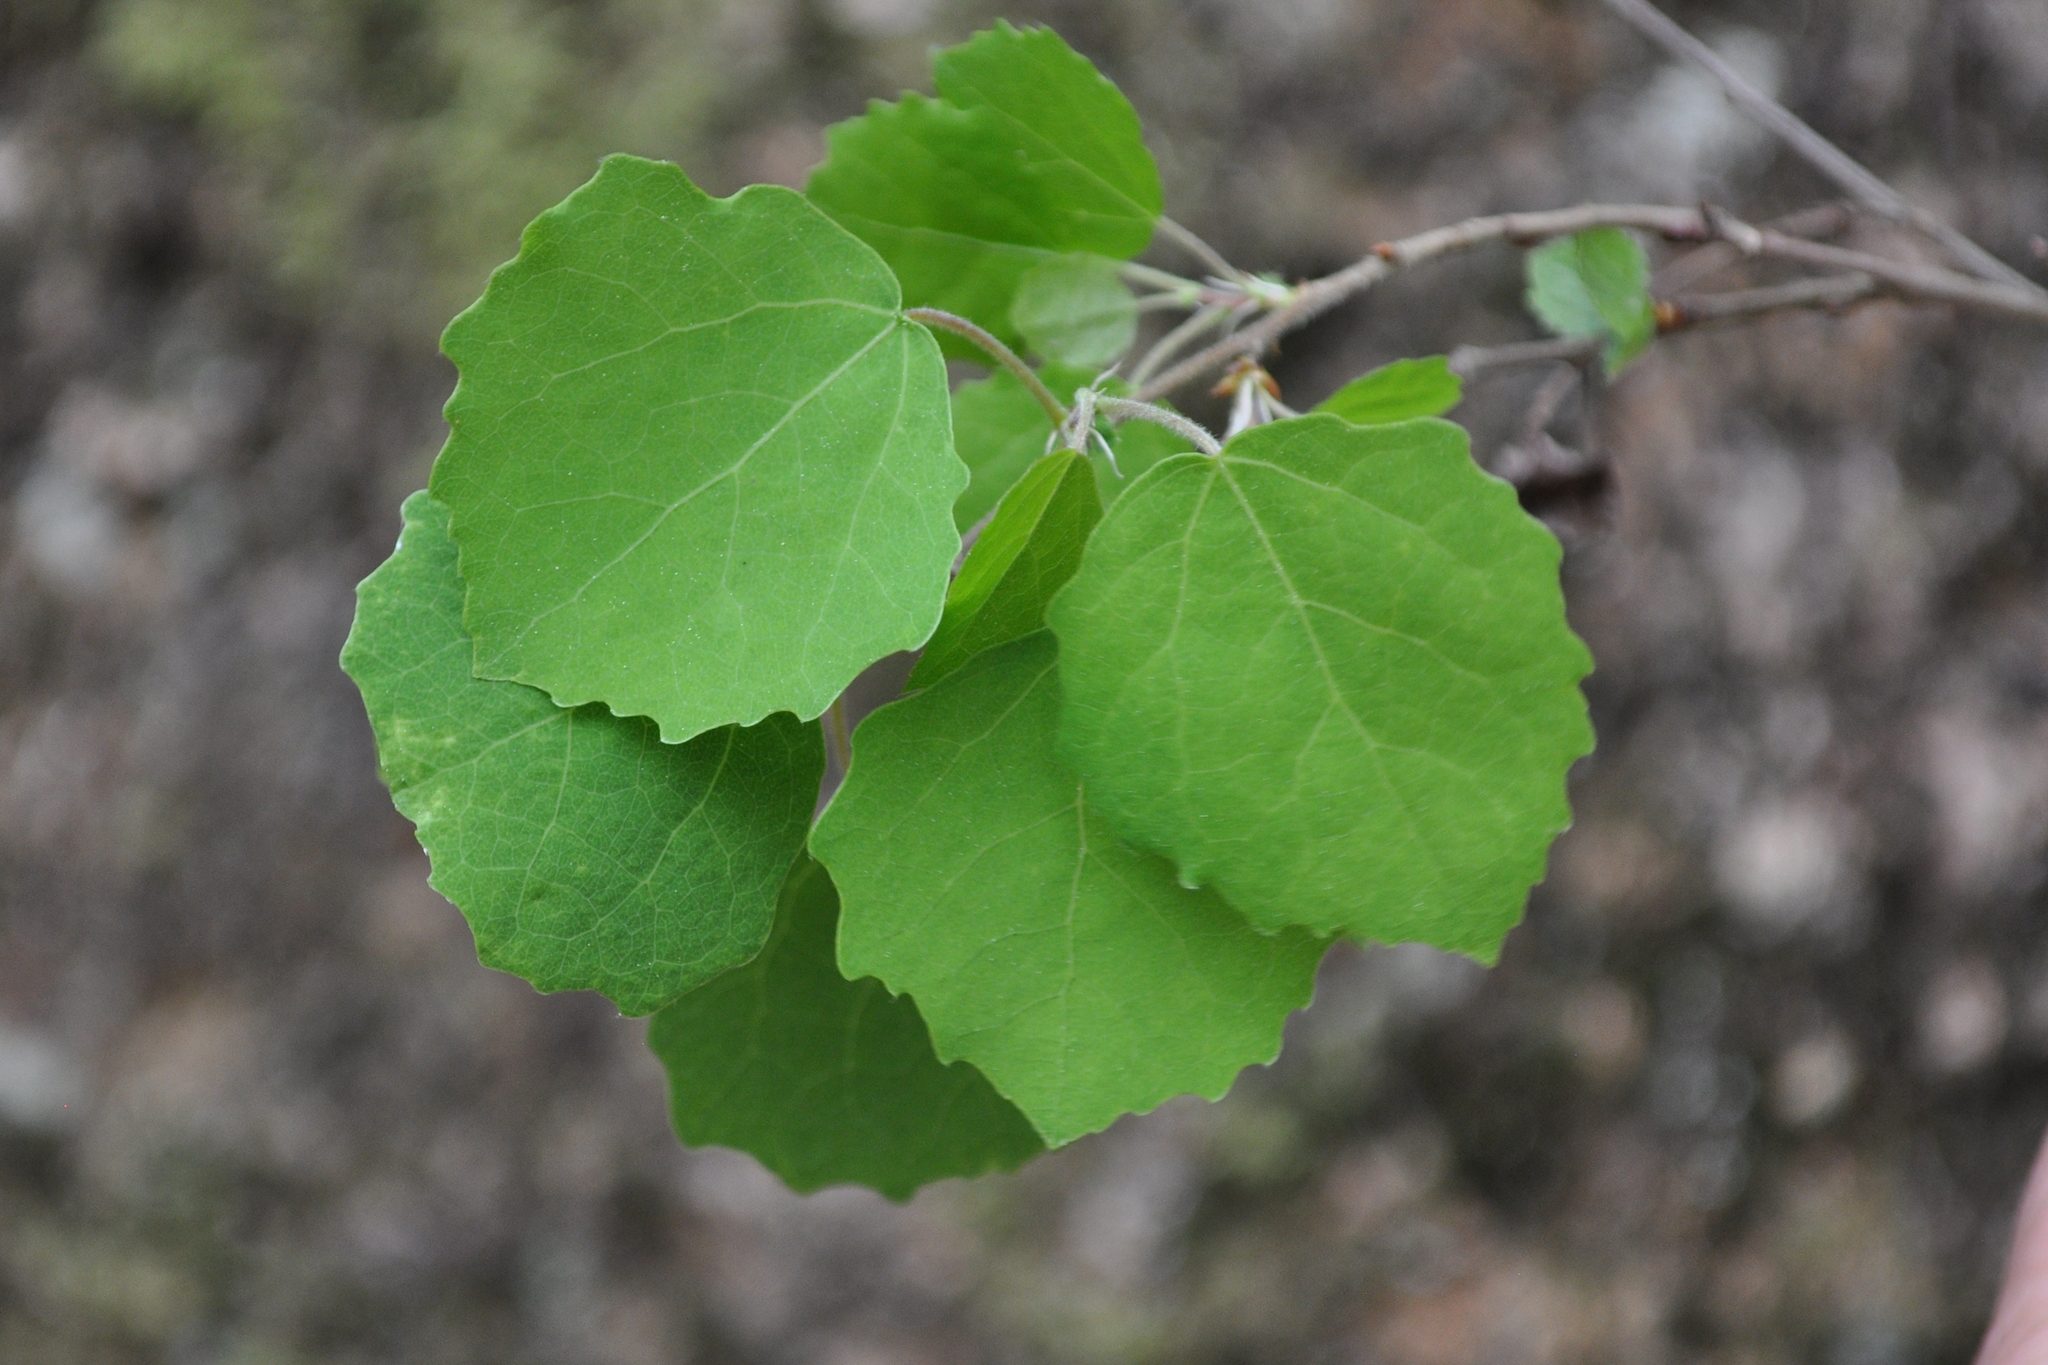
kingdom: Plantae
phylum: Tracheophyta
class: Magnoliopsida
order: Malpighiales
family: Salicaceae
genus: Populus
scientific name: Populus tremula
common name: European aspen
